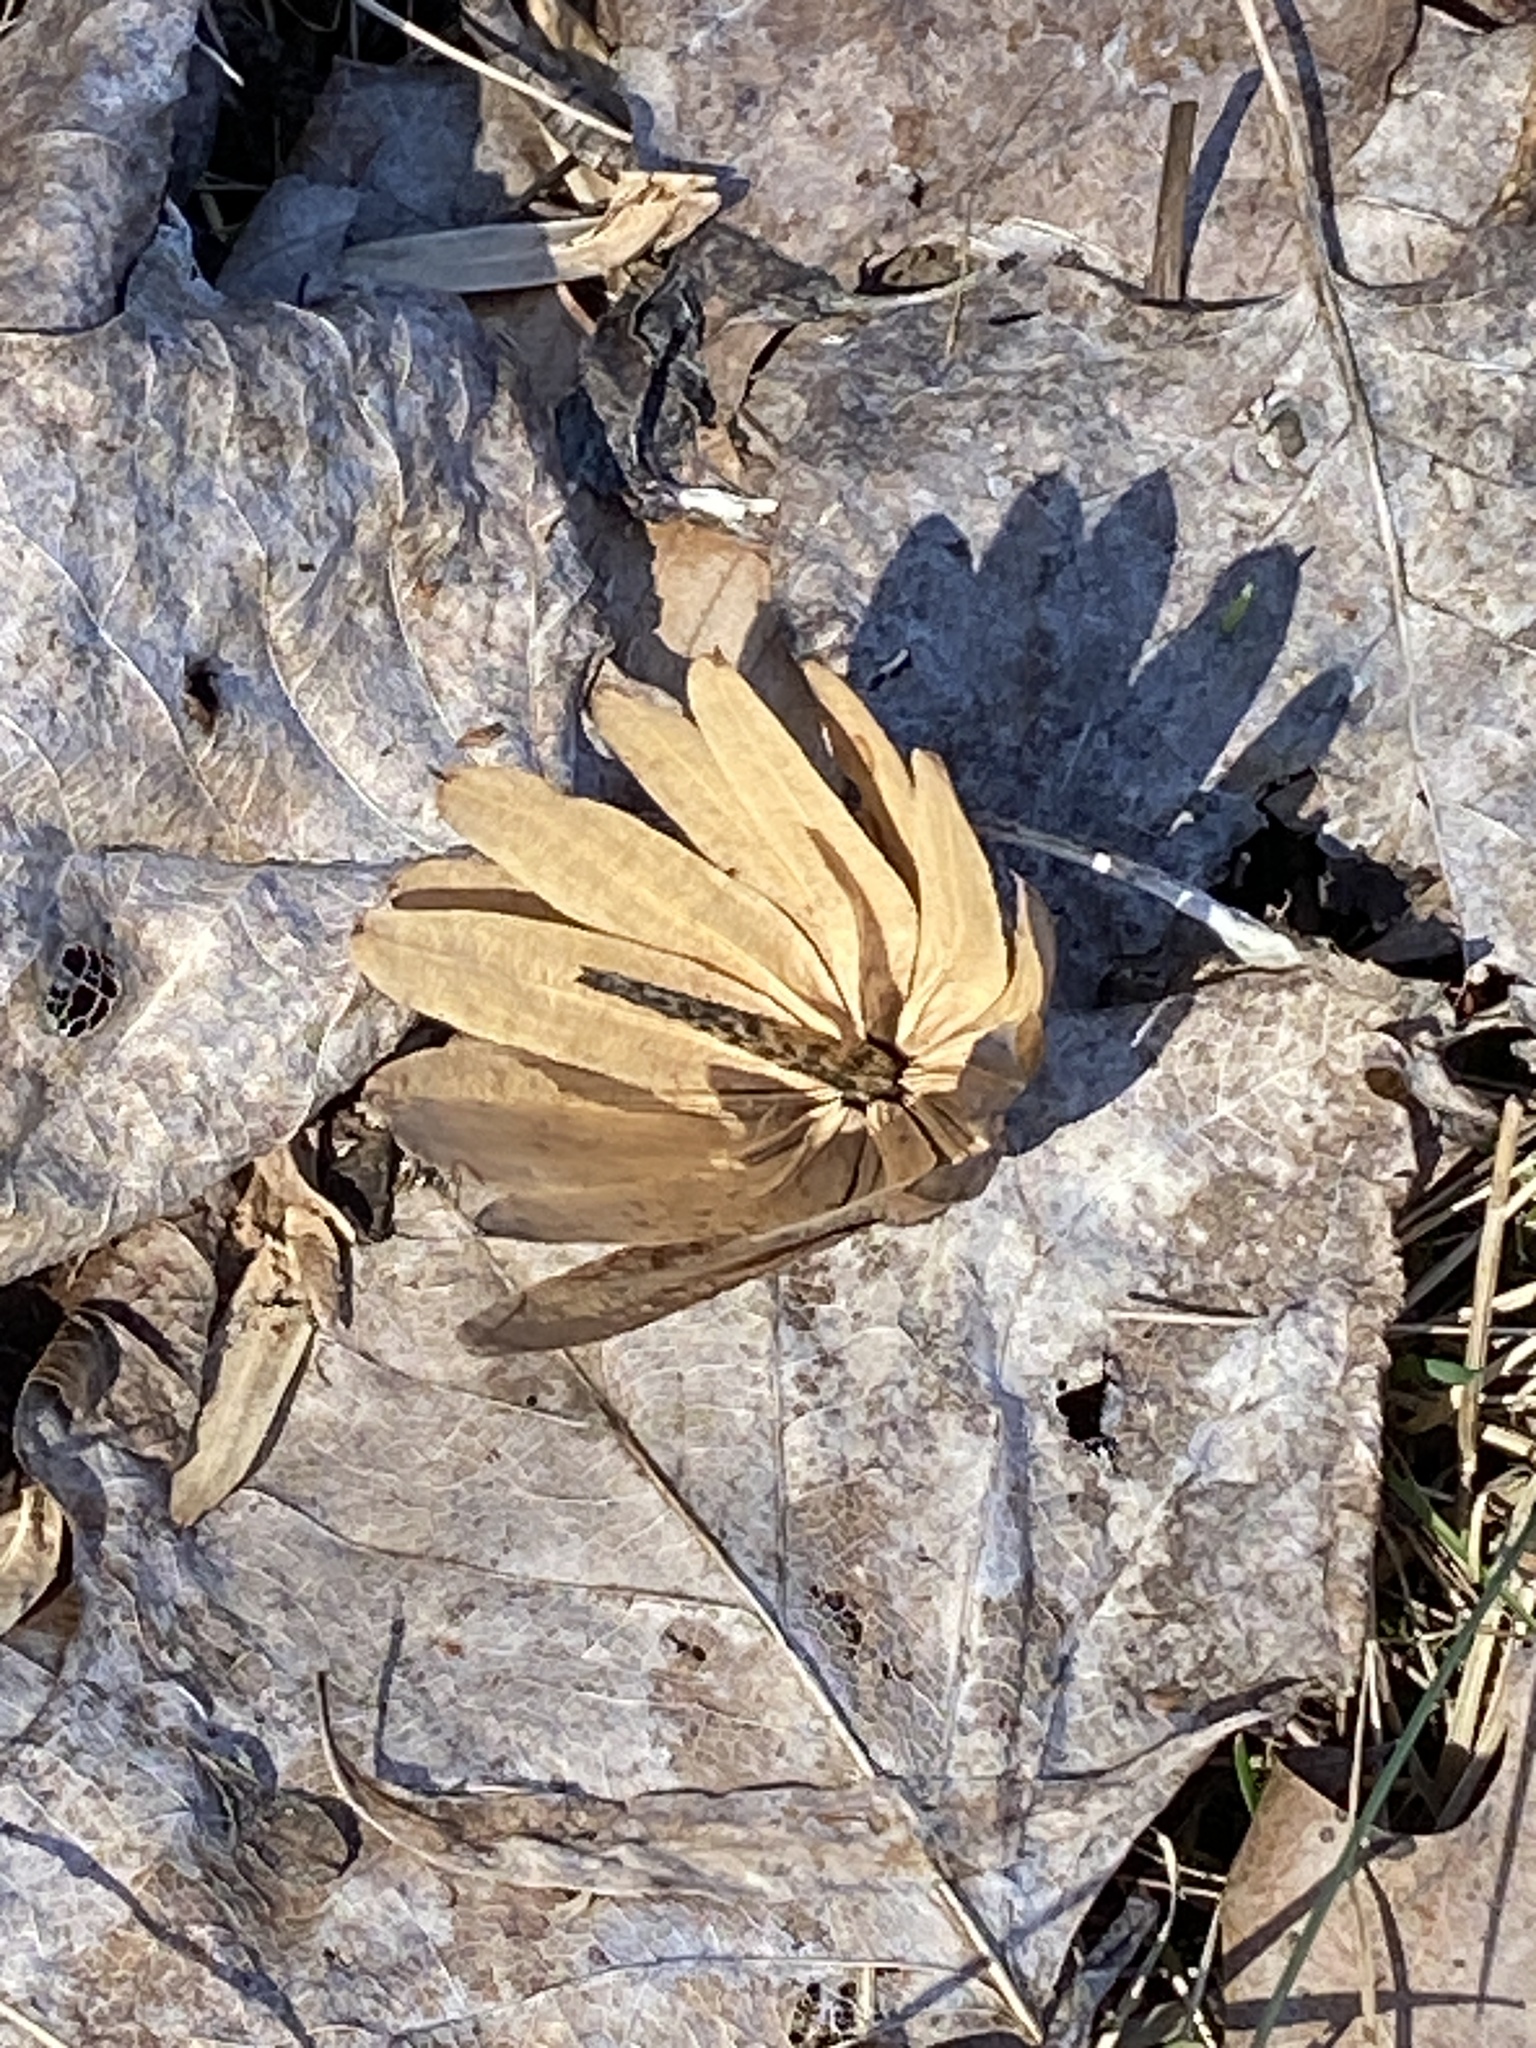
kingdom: Plantae
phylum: Tracheophyta
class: Magnoliopsida
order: Magnoliales
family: Magnoliaceae
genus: Liriodendron
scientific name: Liriodendron tulipifera
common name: Tulip tree
